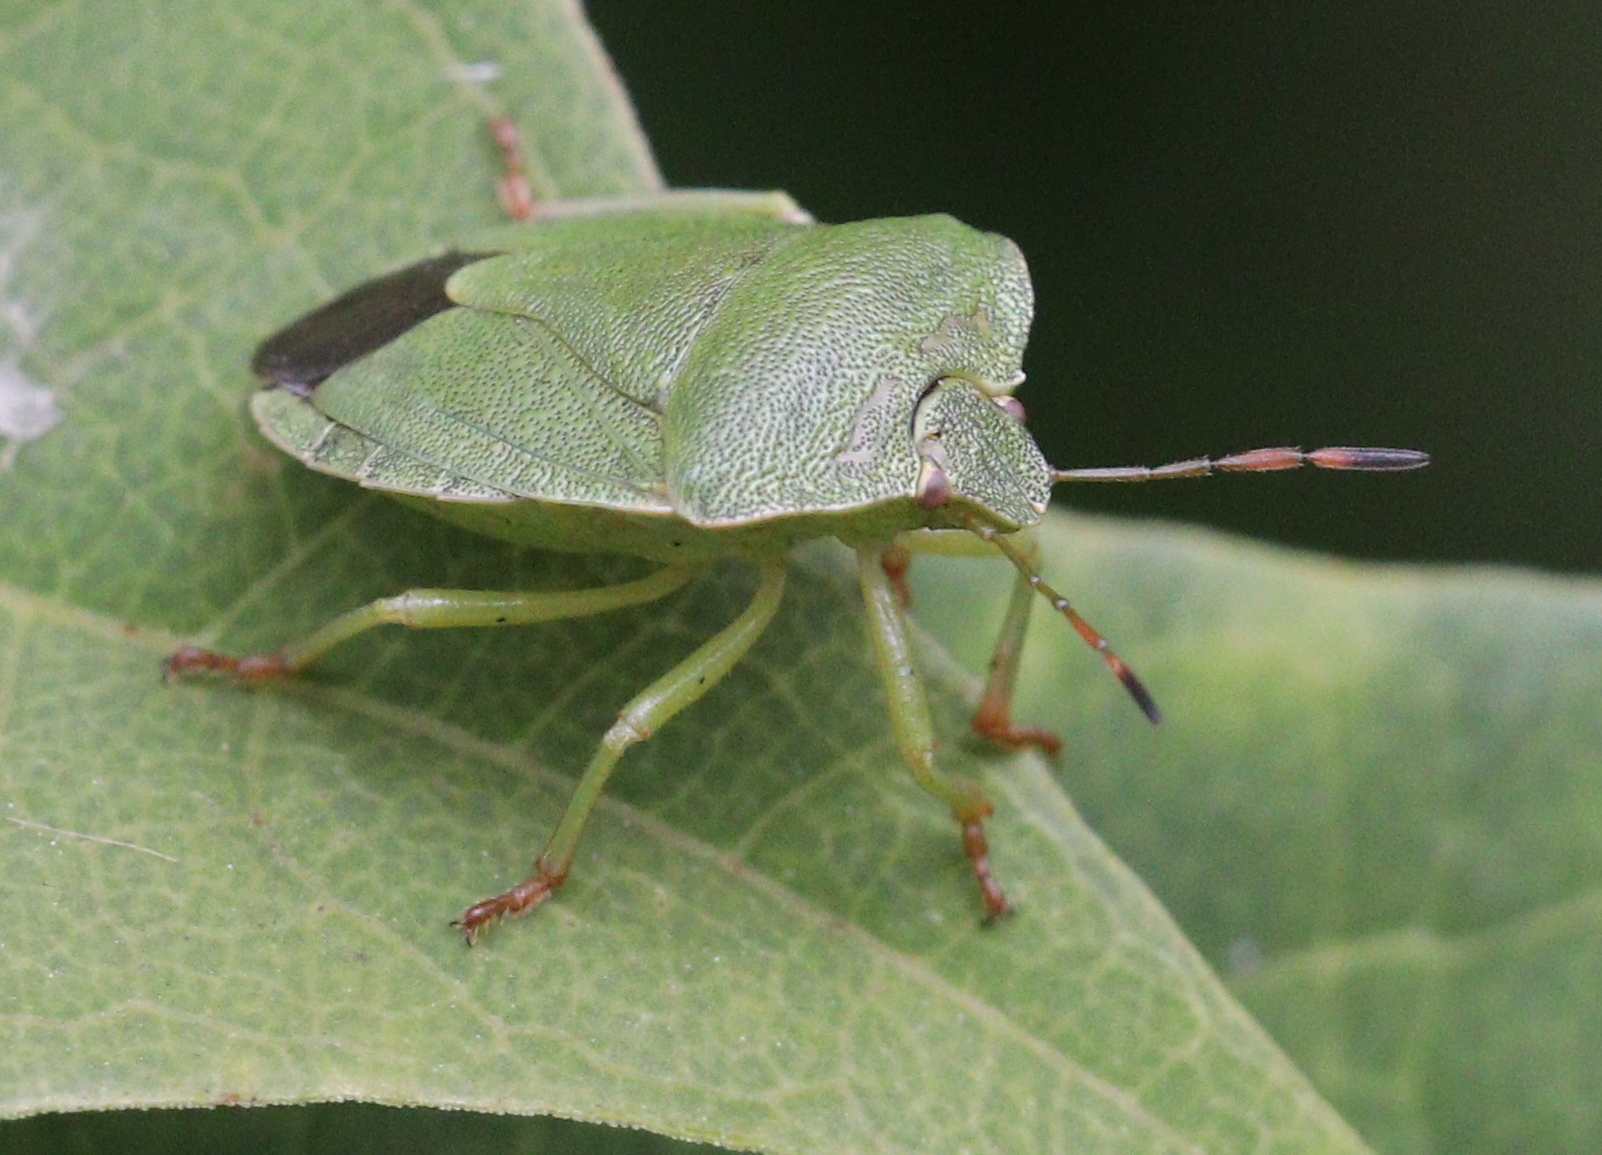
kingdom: Animalia
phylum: Arthropoda
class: Insecta
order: Hemiptera
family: Pentatomidae
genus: Palomena
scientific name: Palomena viridissima
